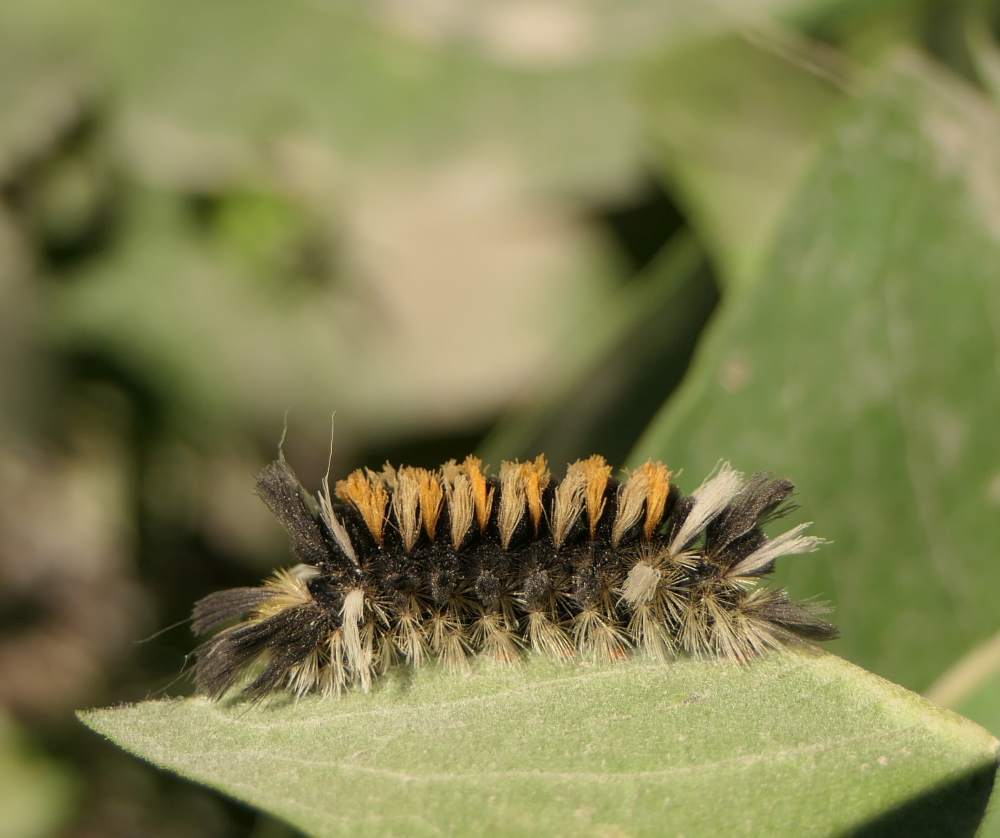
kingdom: Animalia
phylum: Arthropoda
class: Insecta
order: Lepidoptera
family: Erebidae
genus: Euchaetes
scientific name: Euchaetes egle
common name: Milkweed tussock moth
